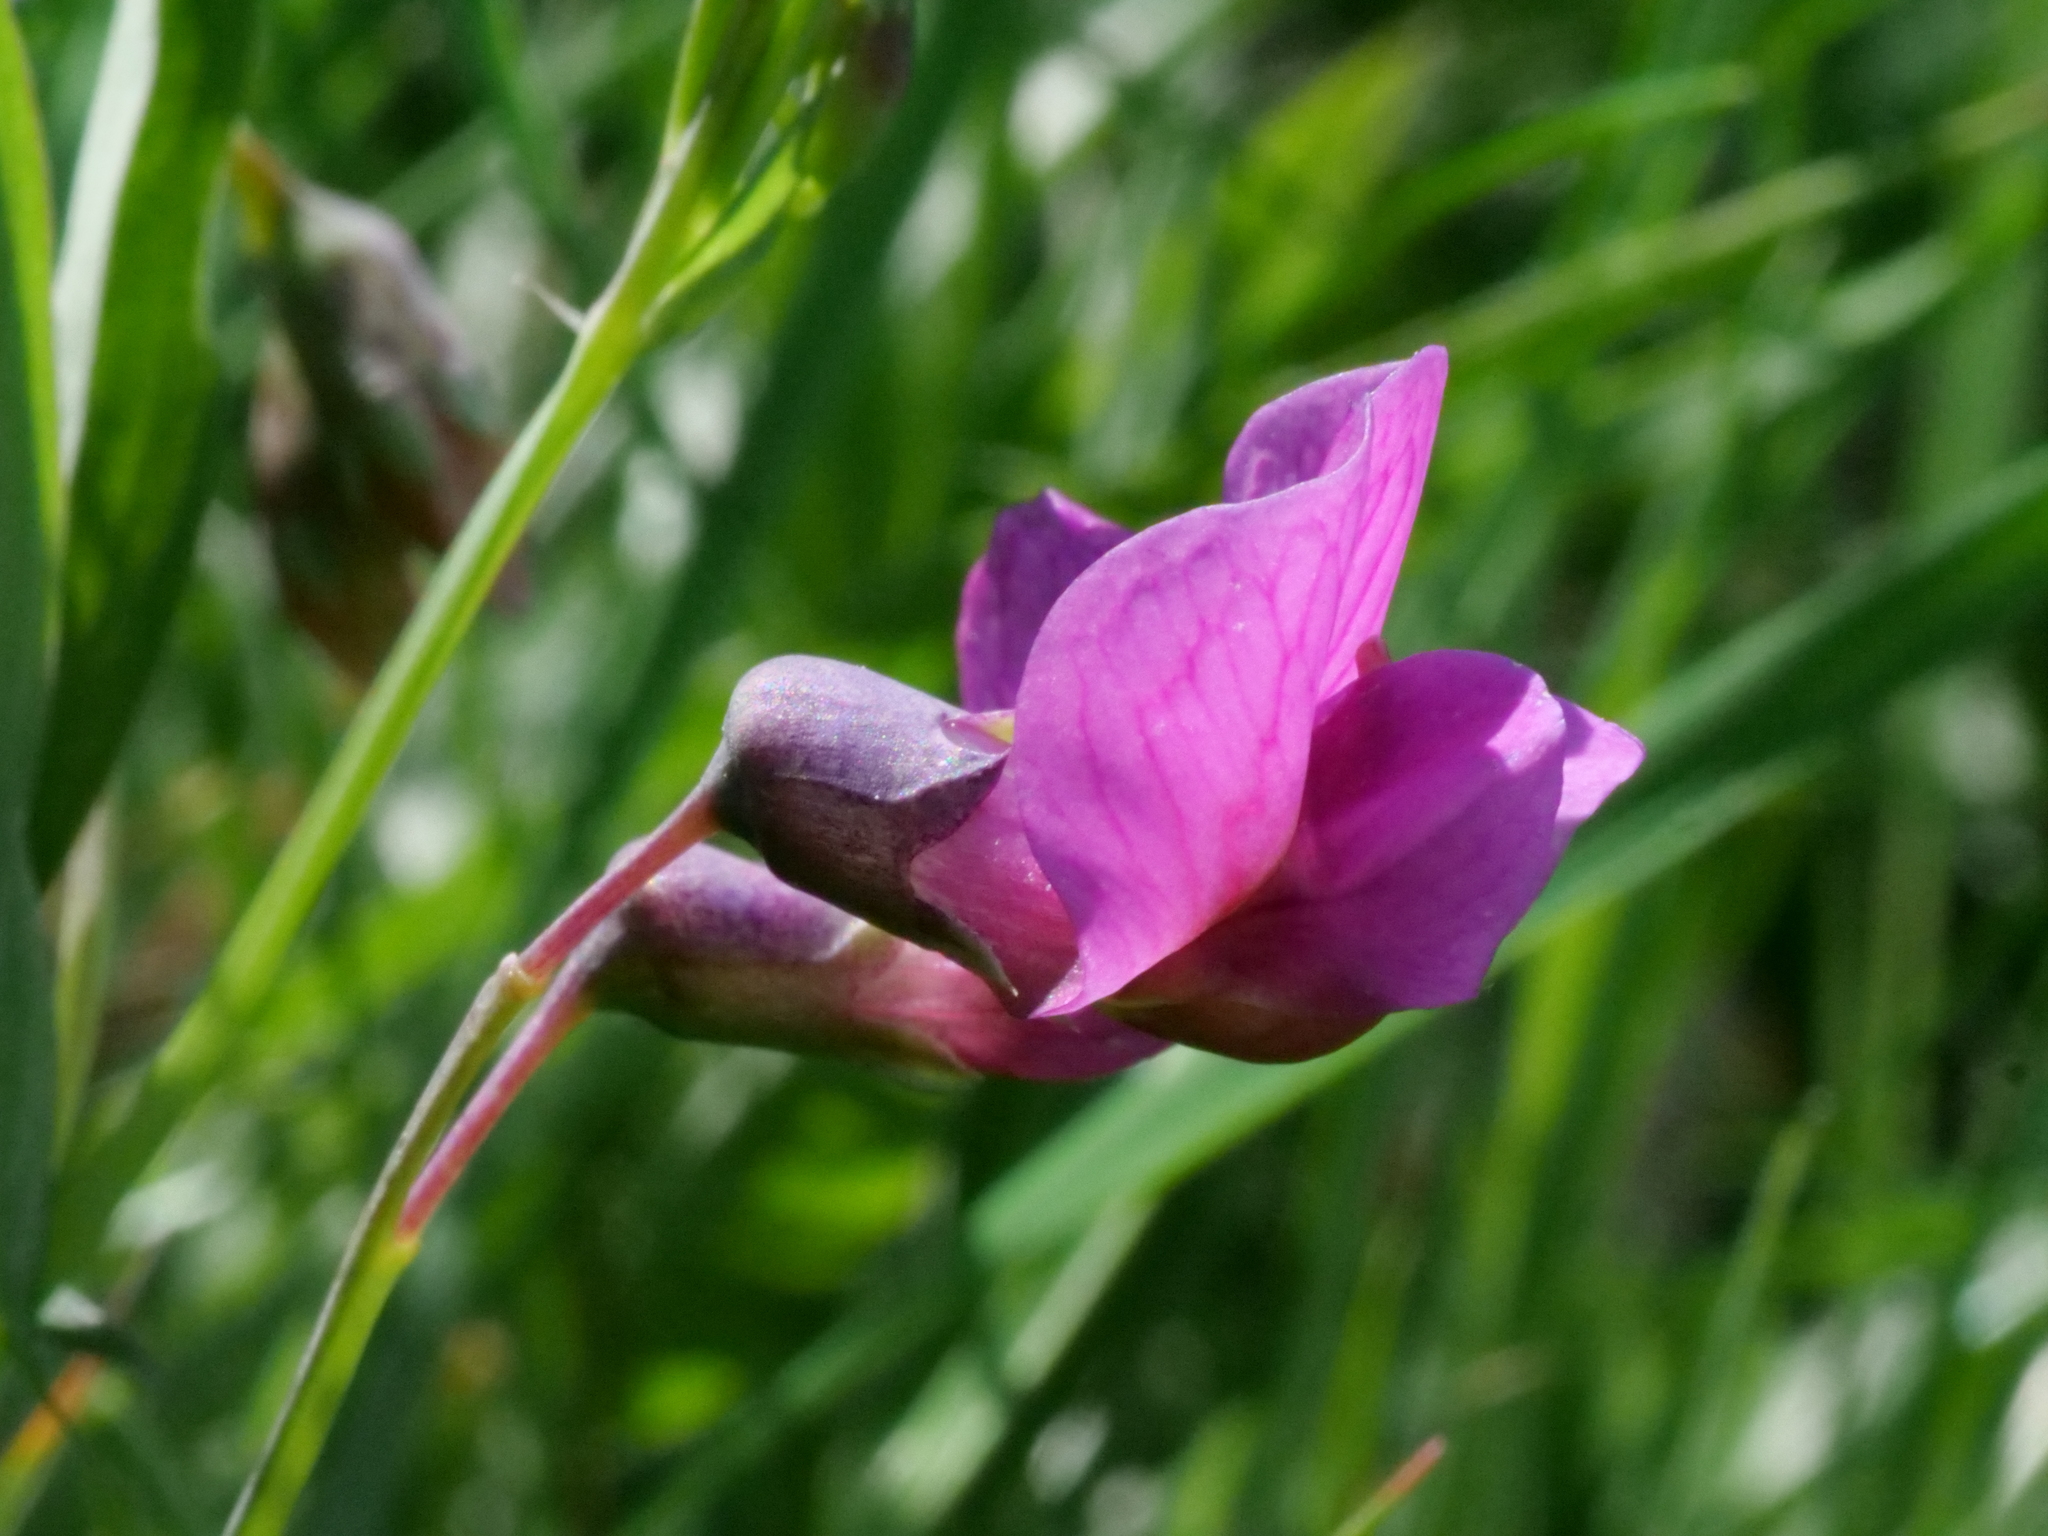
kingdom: Plantae
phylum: Tracheophyta
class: Magnoliopsida
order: Fabales
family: Fabaceae
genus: Lathyrus
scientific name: Lathyrus linifolius
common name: Bitter-vetch
